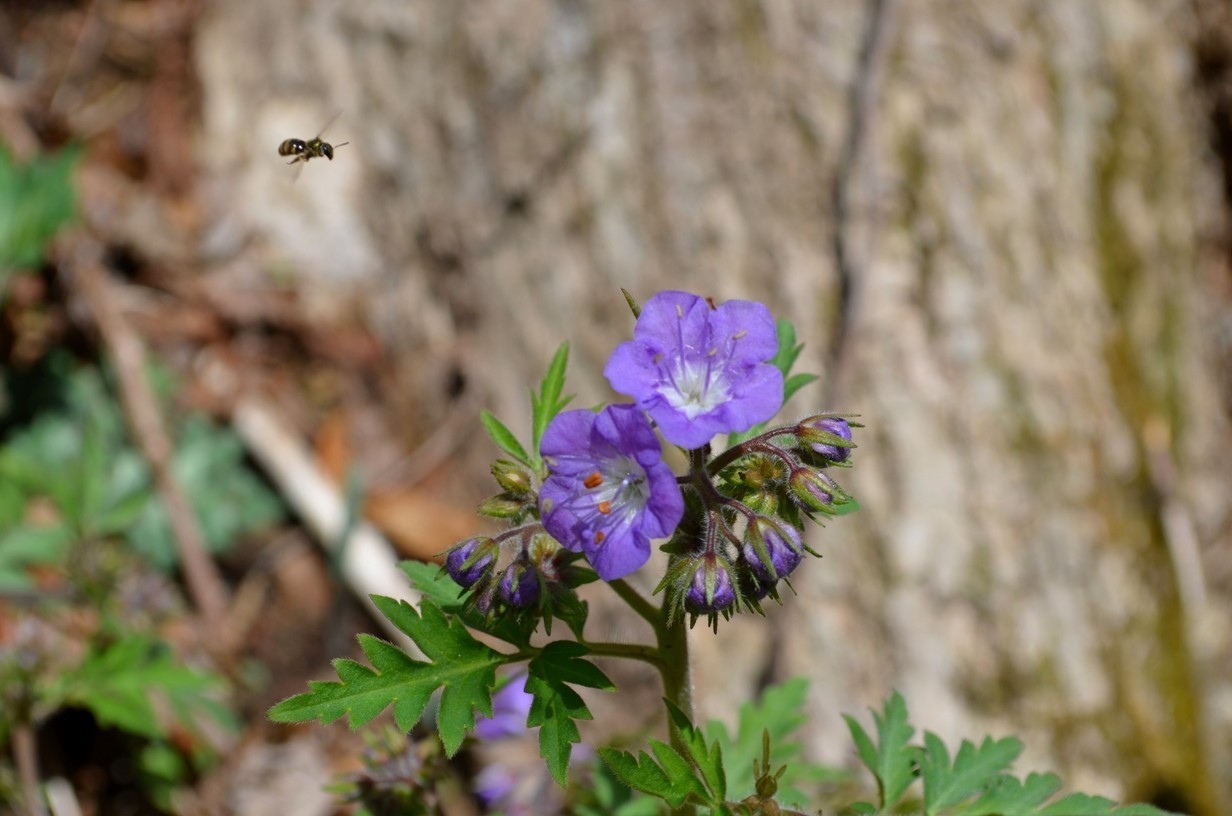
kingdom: Plantae
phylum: Tracheophyta
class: Magnoliopsida
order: Boraginales
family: Hydrophyllaceae
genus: Phacelia
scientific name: Phacelia bipinnatifida
